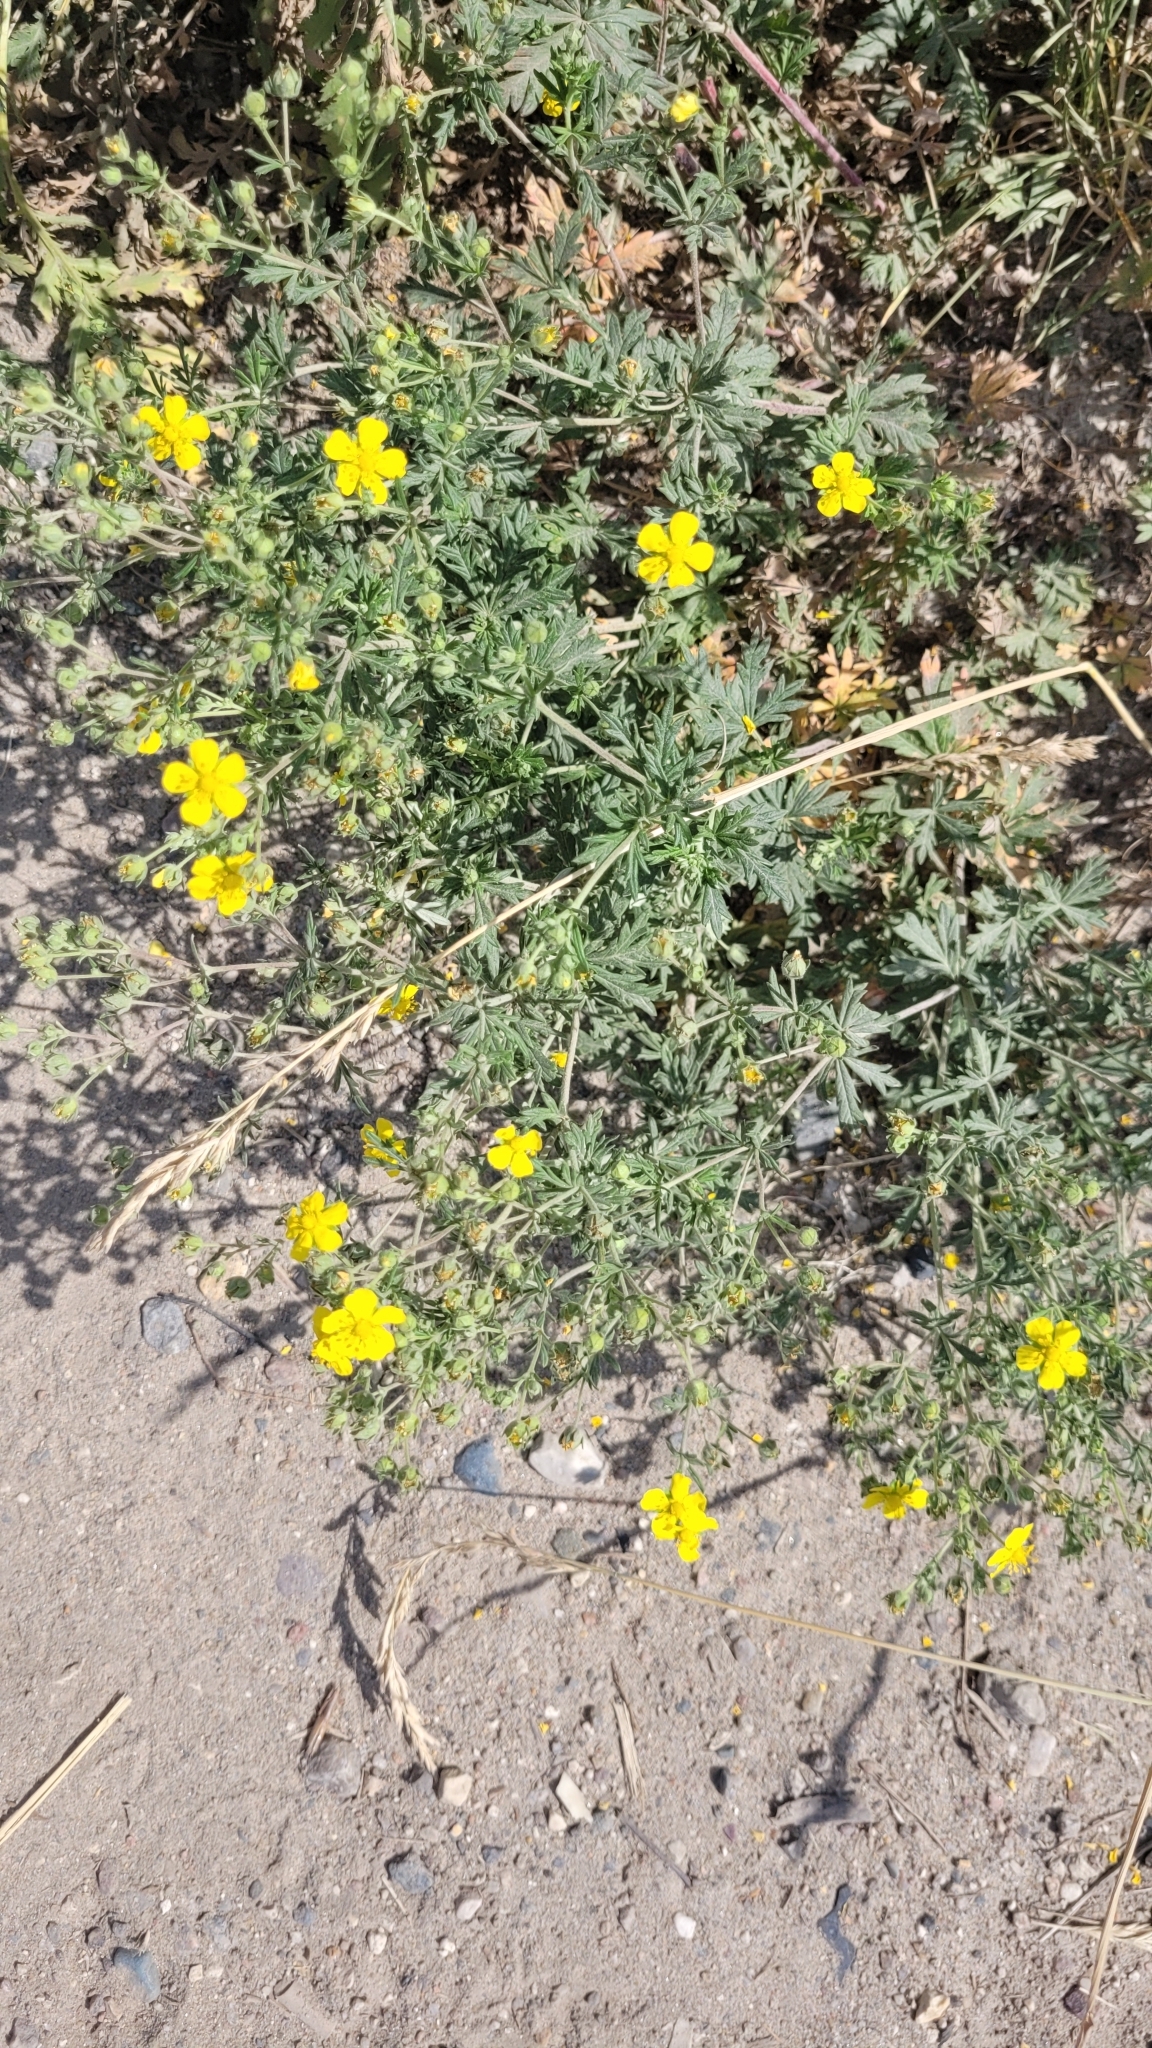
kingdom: Plantae
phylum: Tracheophyta
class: Magnoliopsida
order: Rosales
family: Rosaceae
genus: Potentilla
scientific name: Potentilla argentea
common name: Hoary cinquefoil
